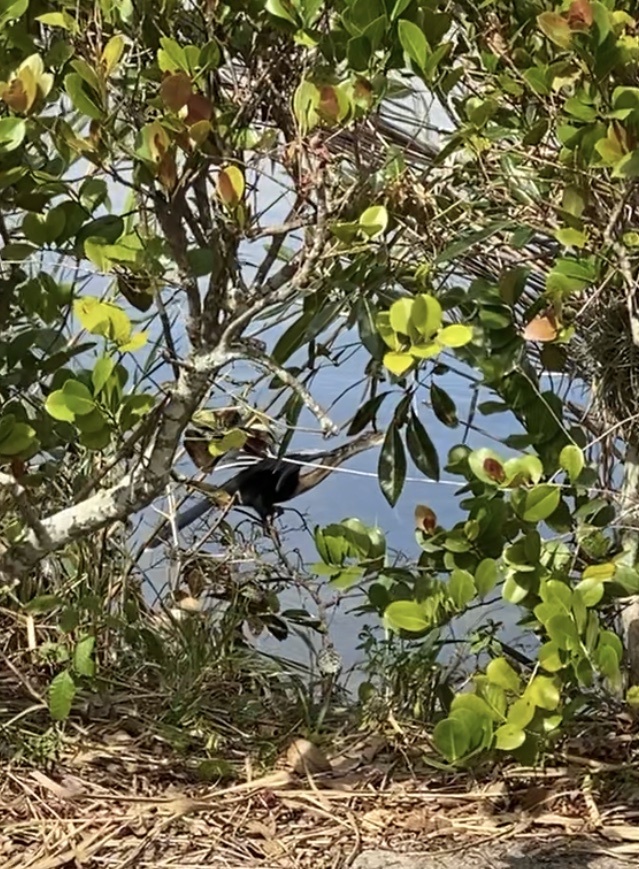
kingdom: Animalia
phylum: Chordata
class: Aves
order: Suliformes
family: Anhingidae
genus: Anhinga
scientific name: Anhinga anhinga
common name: Anhinga
